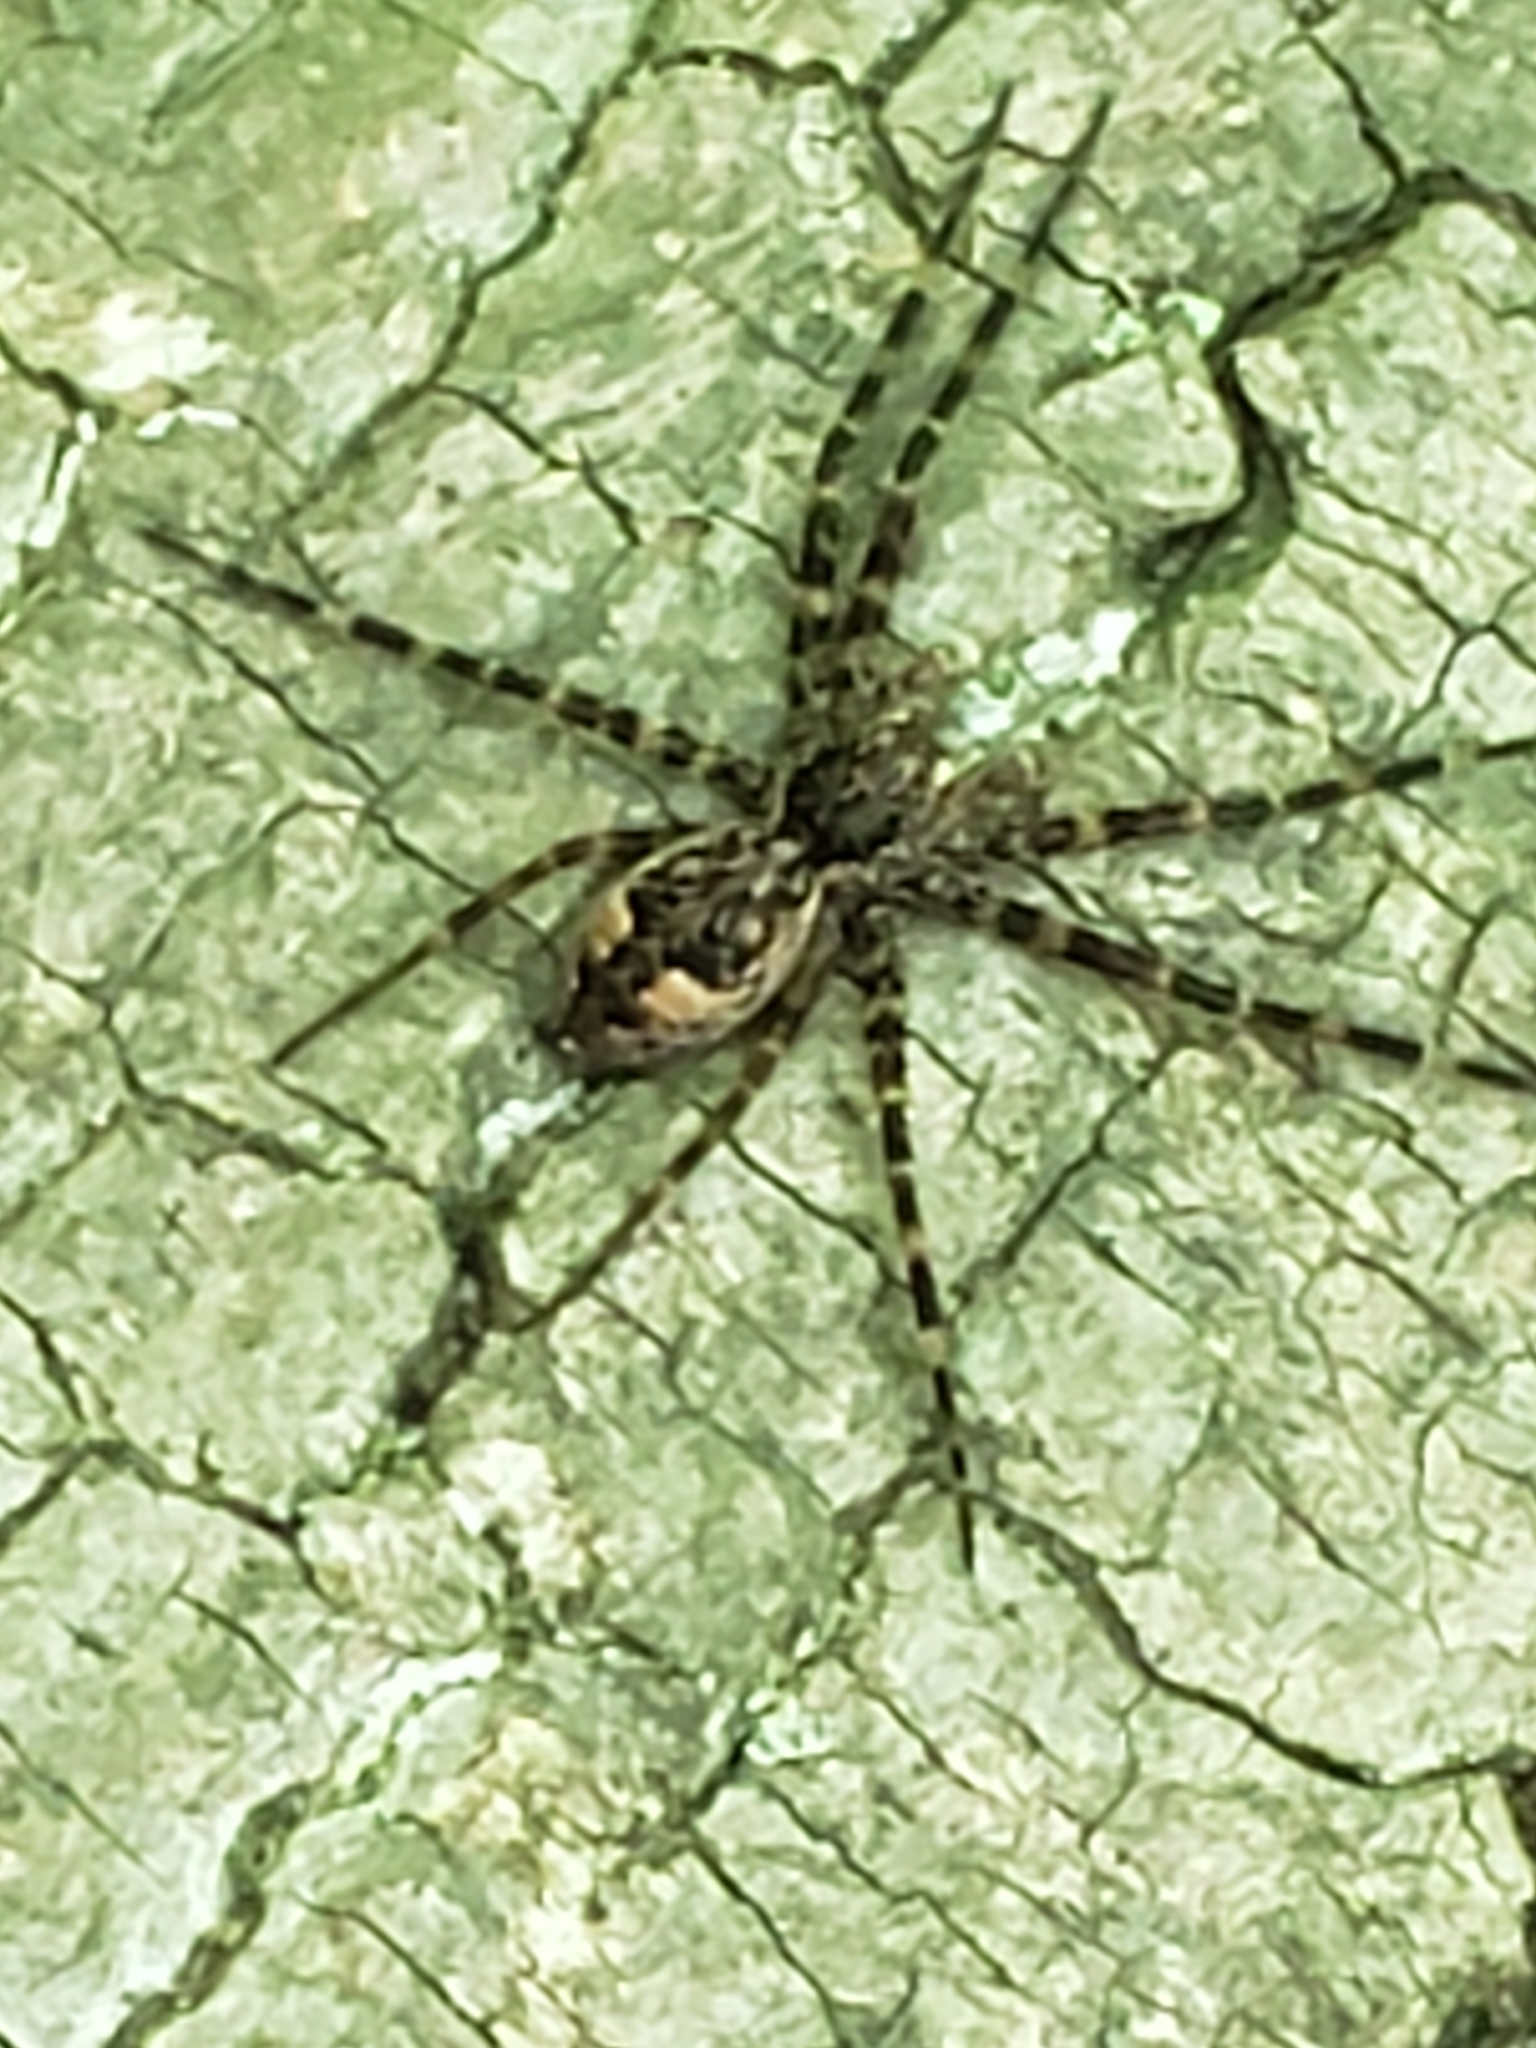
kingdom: Animalia
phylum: Arthropoda
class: Arachnida
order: Araneae
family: Pisauridae
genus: Dolomedes
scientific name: Dolomedes tenebrosus
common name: Dark fishing spider
